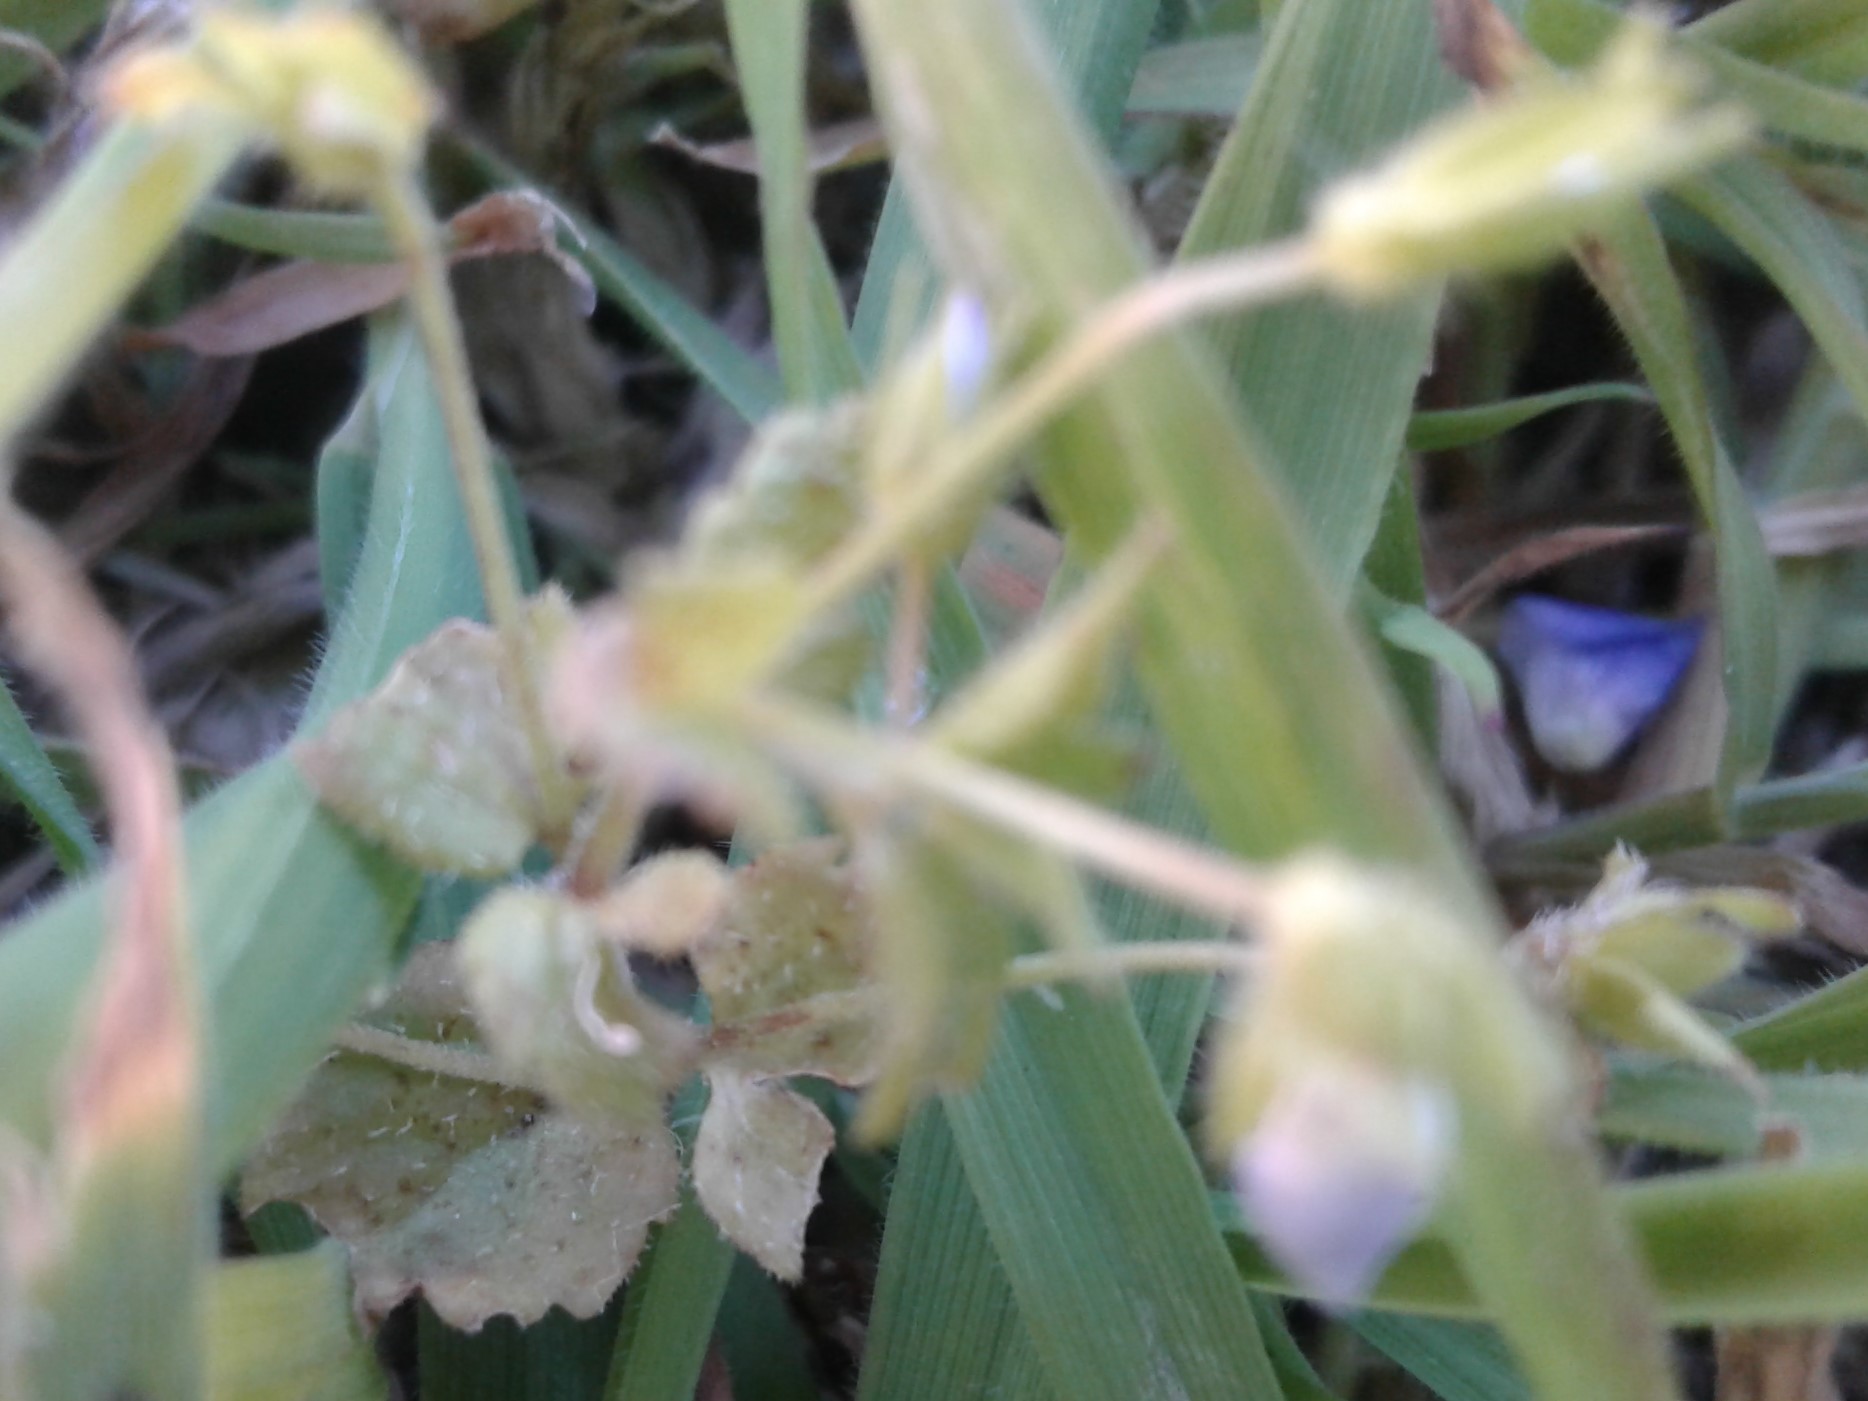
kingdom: Plantae
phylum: Tracheophyta
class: Magnoliopsida
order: Lamiales
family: Plantaginaceae
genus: Veronica
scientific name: Veronica persica
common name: Common field-speedwell
